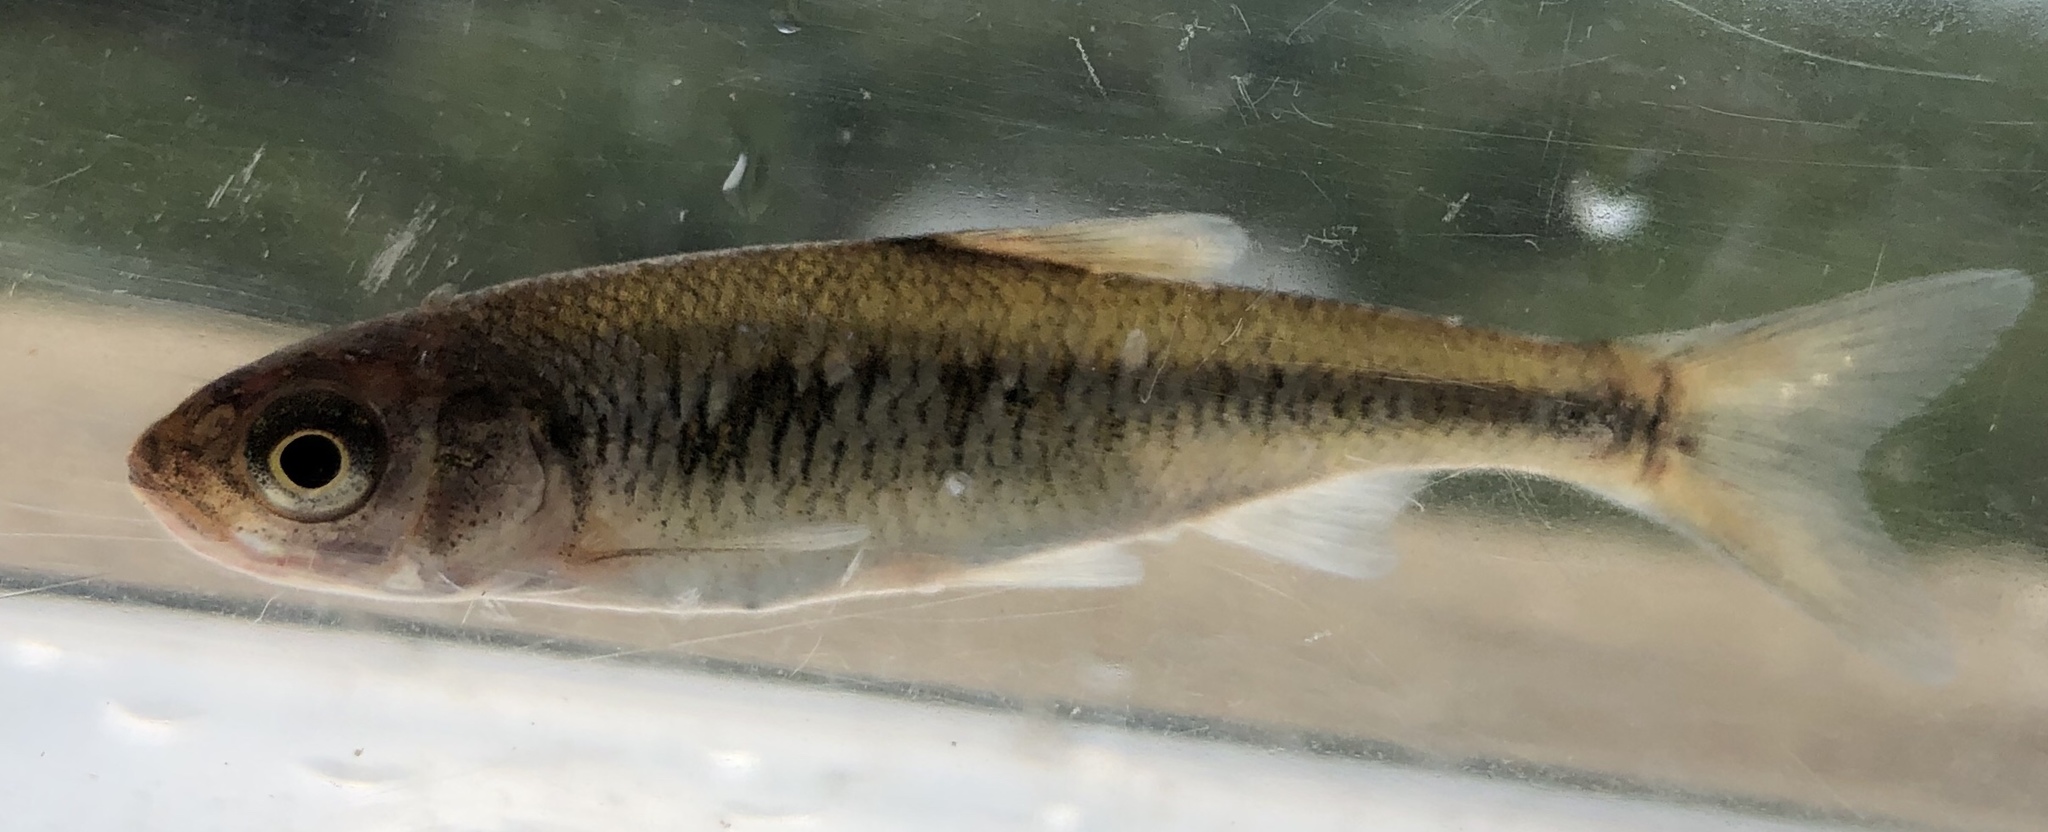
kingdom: Animalia
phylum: Chordata
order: Cypriniformes
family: Cyprinidae
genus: Luxilus
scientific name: Luxilus cornutus
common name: Common shiner
